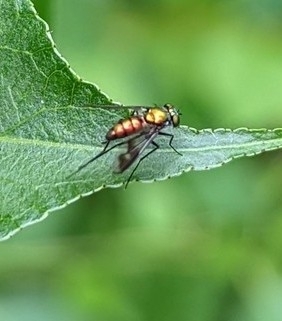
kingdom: Animalia
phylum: Arthropoda
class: Insecta
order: Diptera
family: Dolichopodidae
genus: Condylostylus
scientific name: Condylostylus patibulatus
